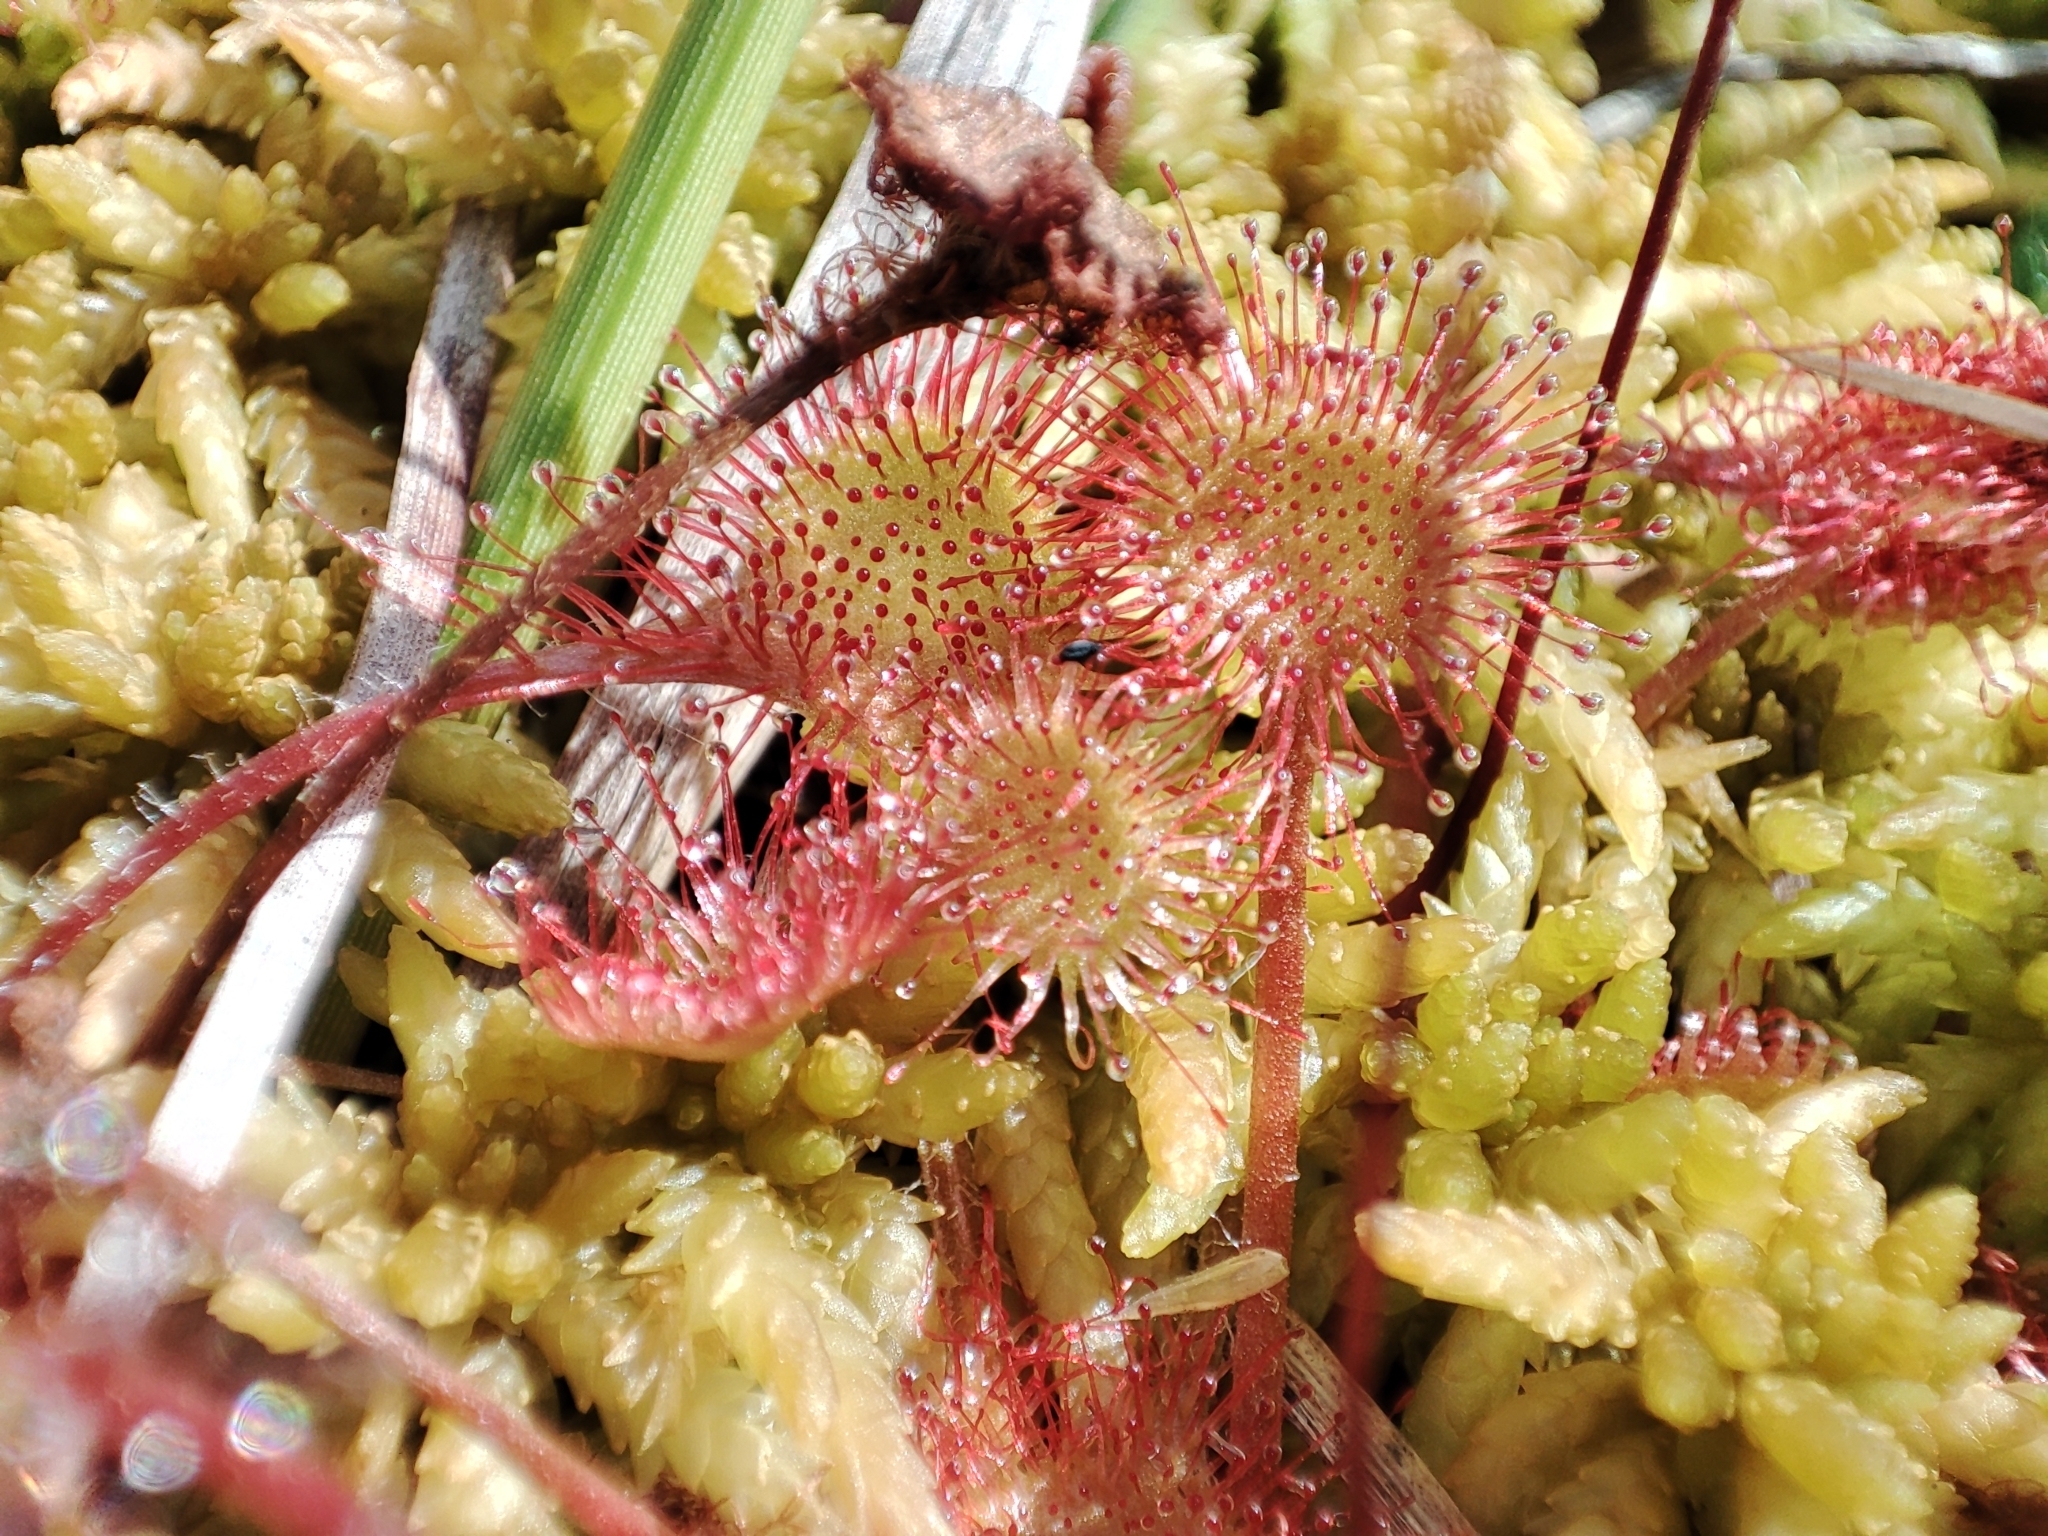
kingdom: Plantae
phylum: Tracheophyta
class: Magnoliopsida
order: Caryophyllales
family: Droseraceae
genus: Drosera
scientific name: Drosera rotundifolia
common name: Round-leaved sundew
